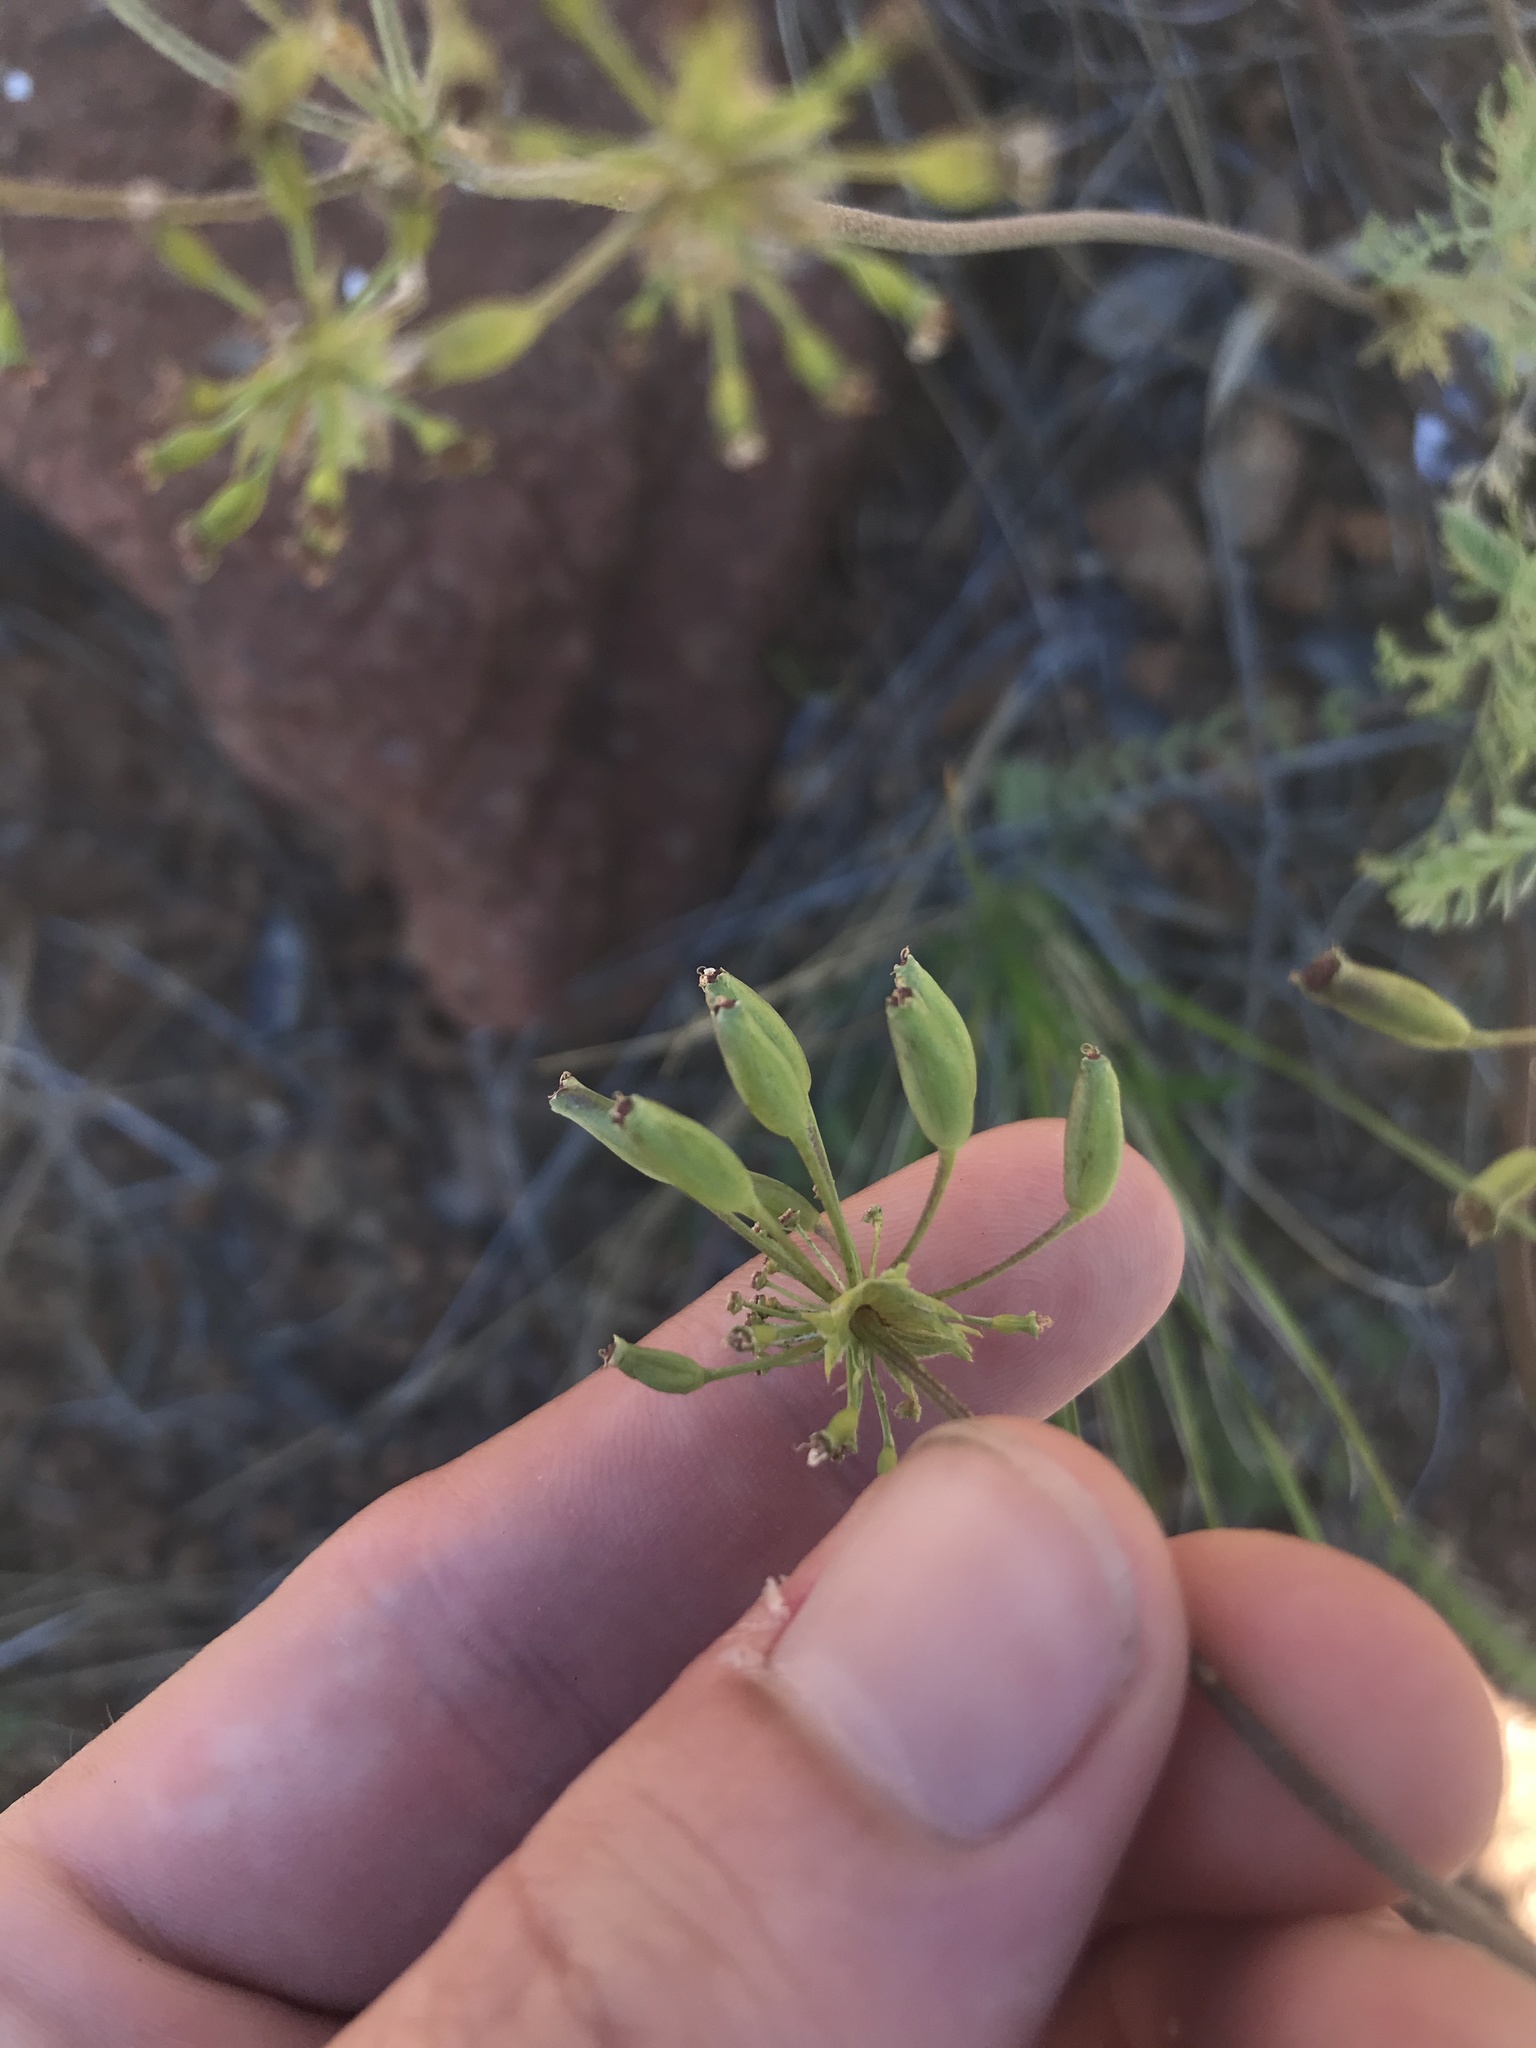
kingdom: Plantae
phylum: Tracheophyta
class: Magnoliopsida
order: Apiales
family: Apiaceae
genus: Lomatium
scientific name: Lomatium macrocarpum
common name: Big-seed biscuitroot
